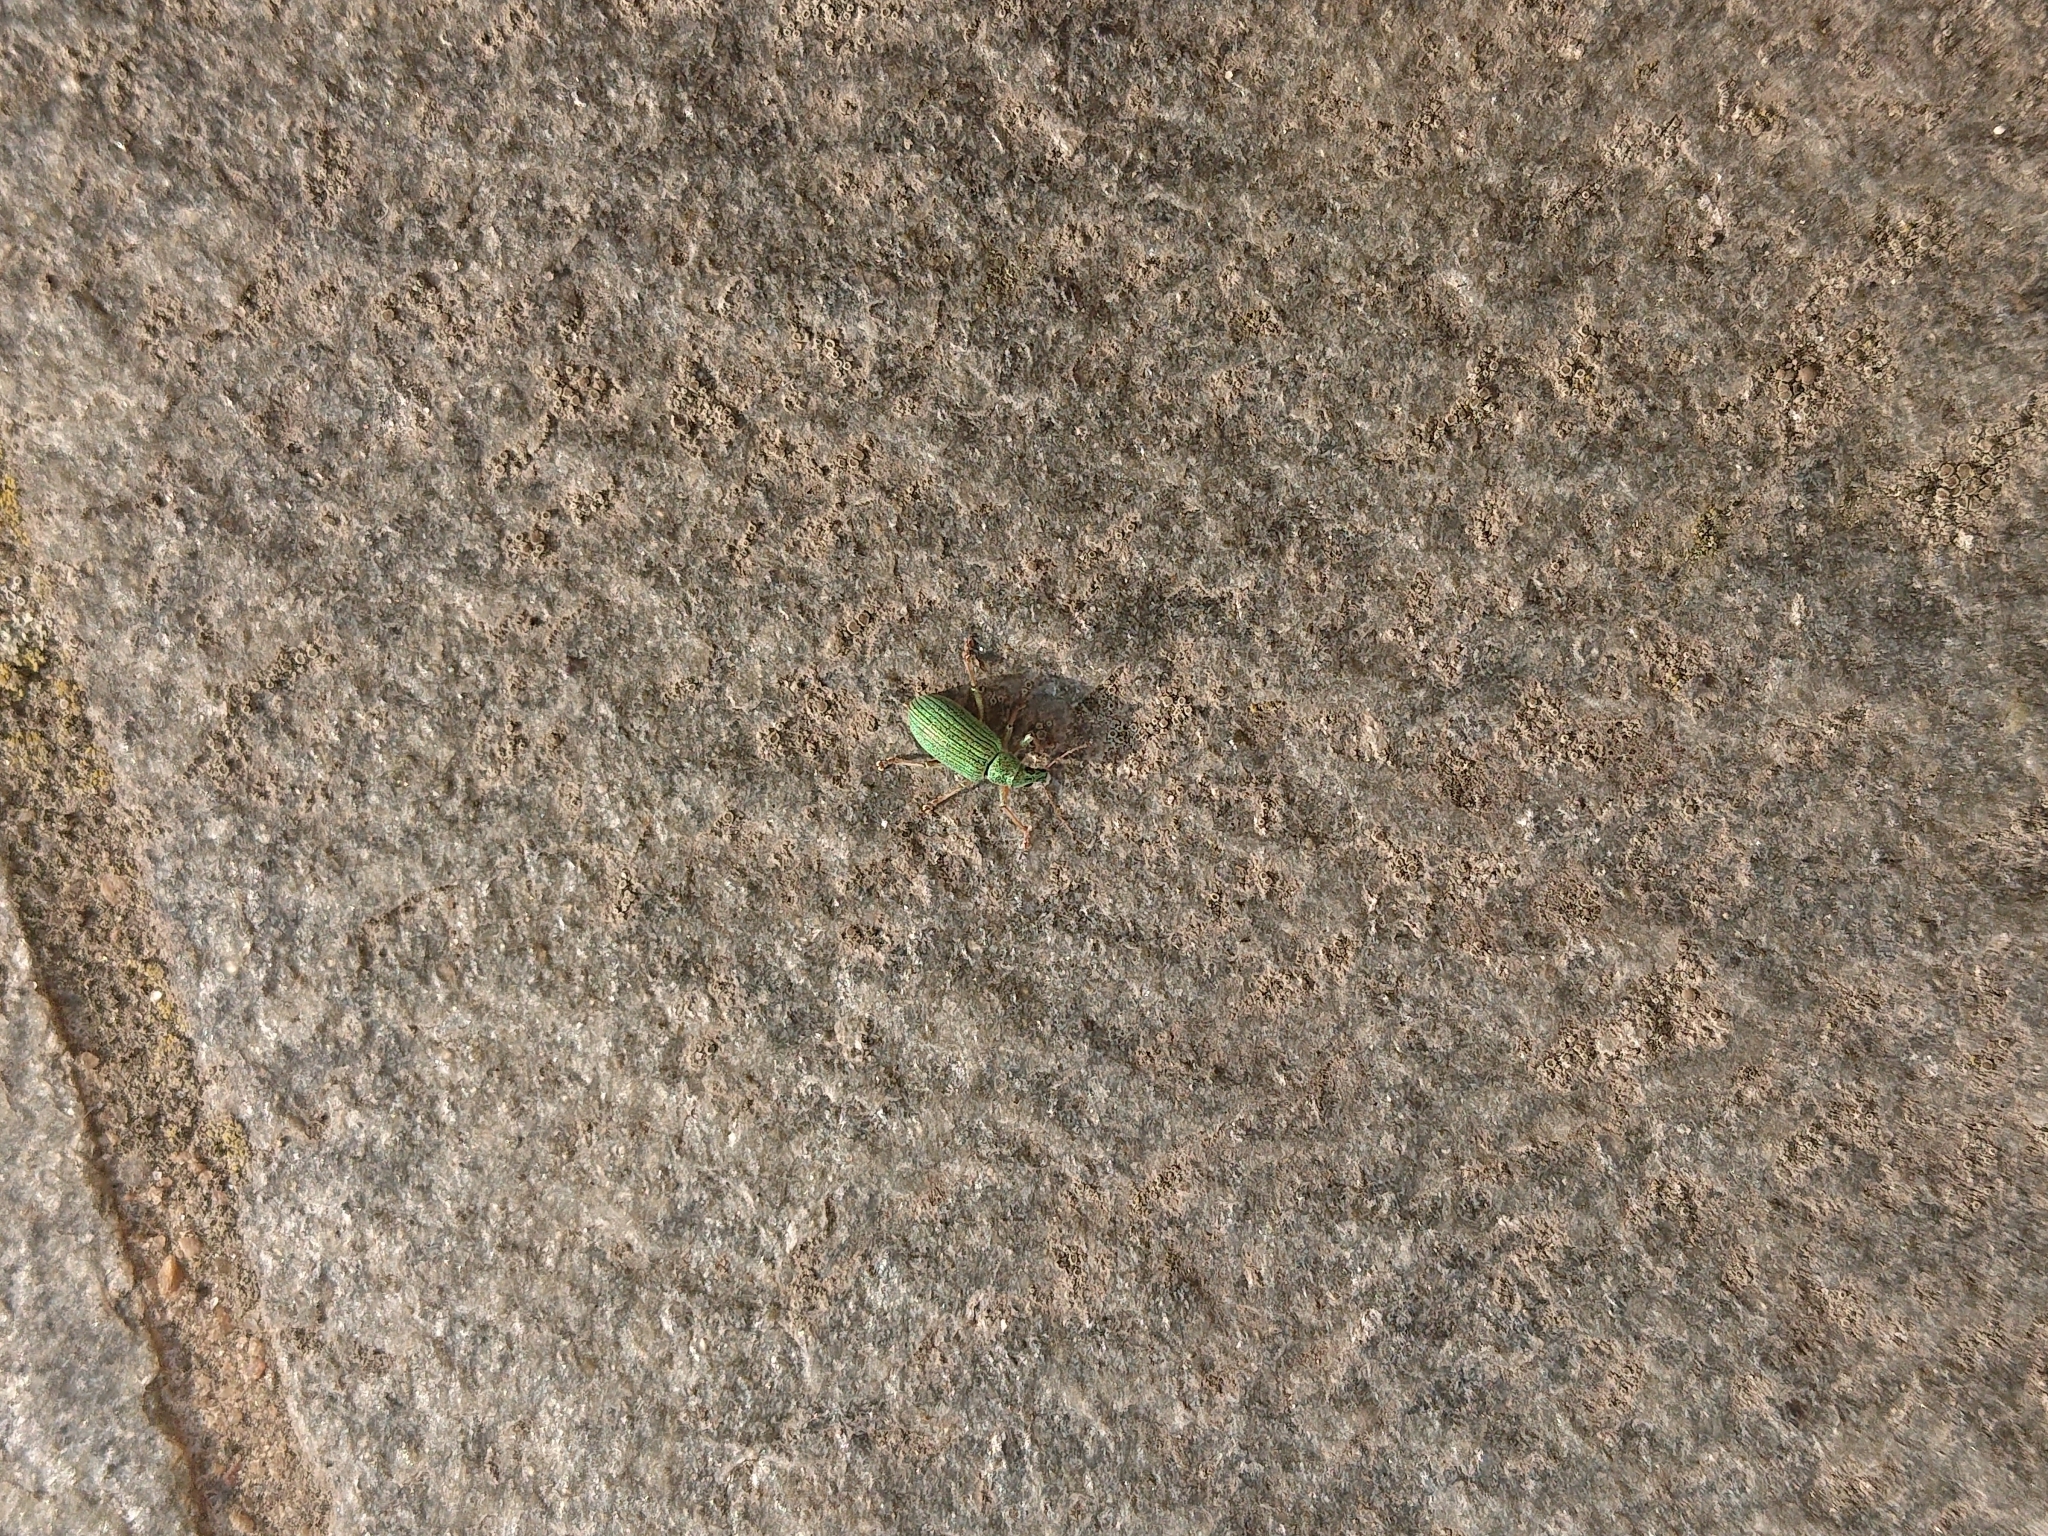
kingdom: Animalia
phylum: Arthropoda
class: Insecta
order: Coleoptera
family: Curculionidae
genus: Polydrusus
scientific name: Polydrusus formosus
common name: Weevil
